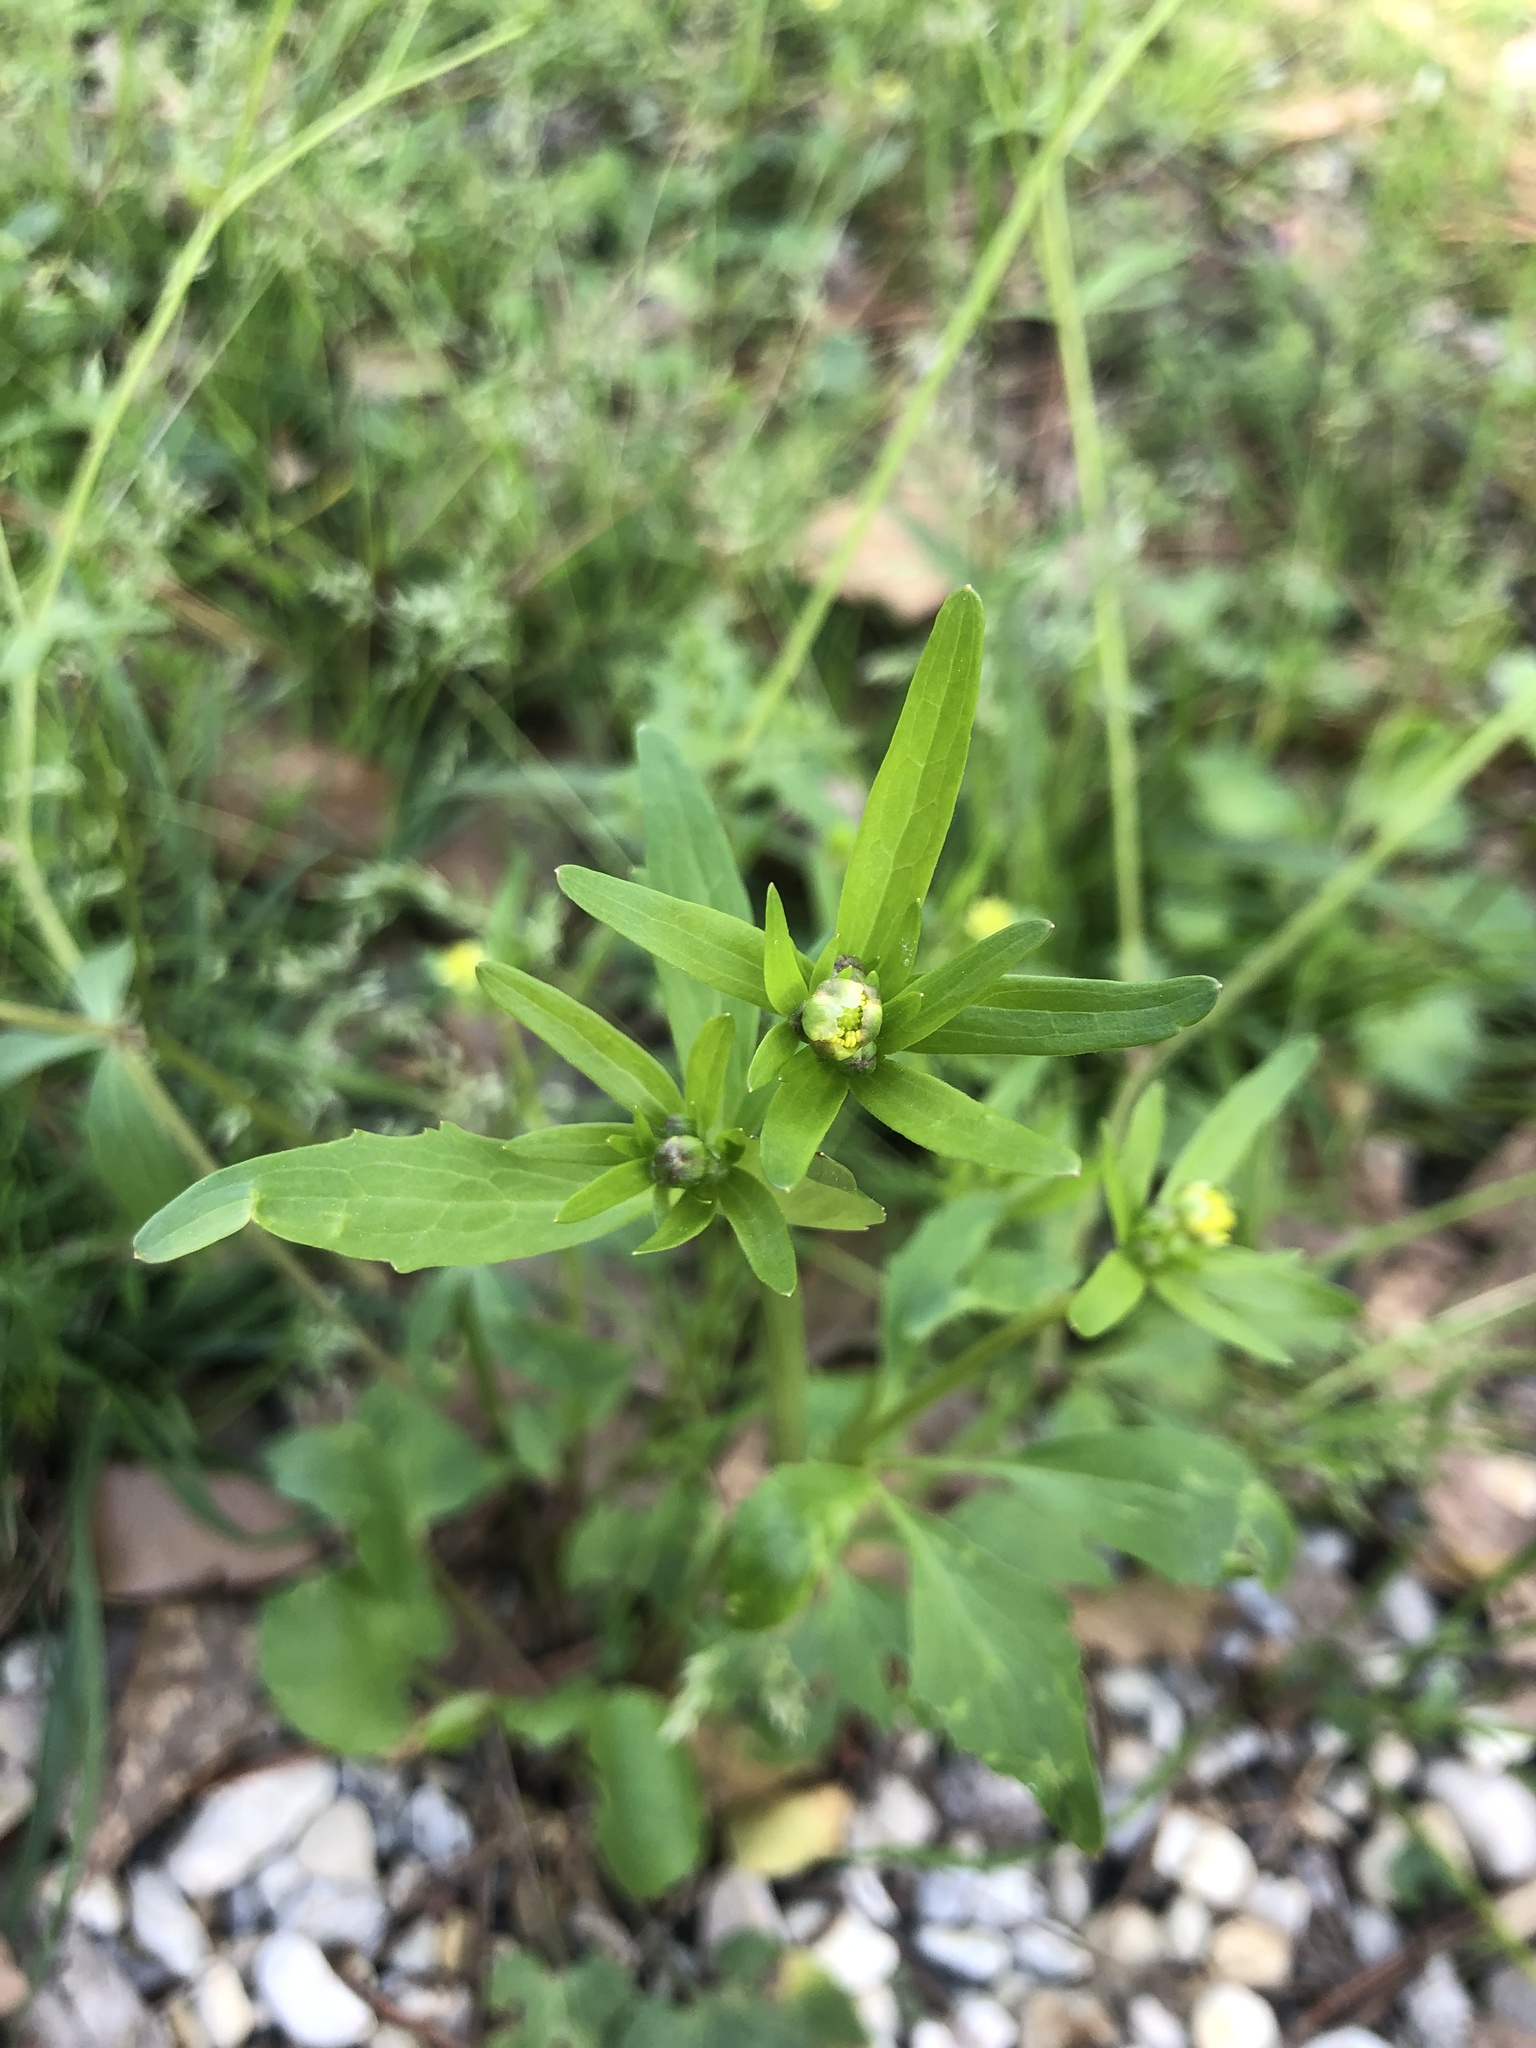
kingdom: Plantae
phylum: Tracheophyta
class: Magnoliopsida
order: Ranunculales
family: Ranunculaceae
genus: Ranunculus
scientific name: Ranunculus abortivus
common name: Early wood buttercup
